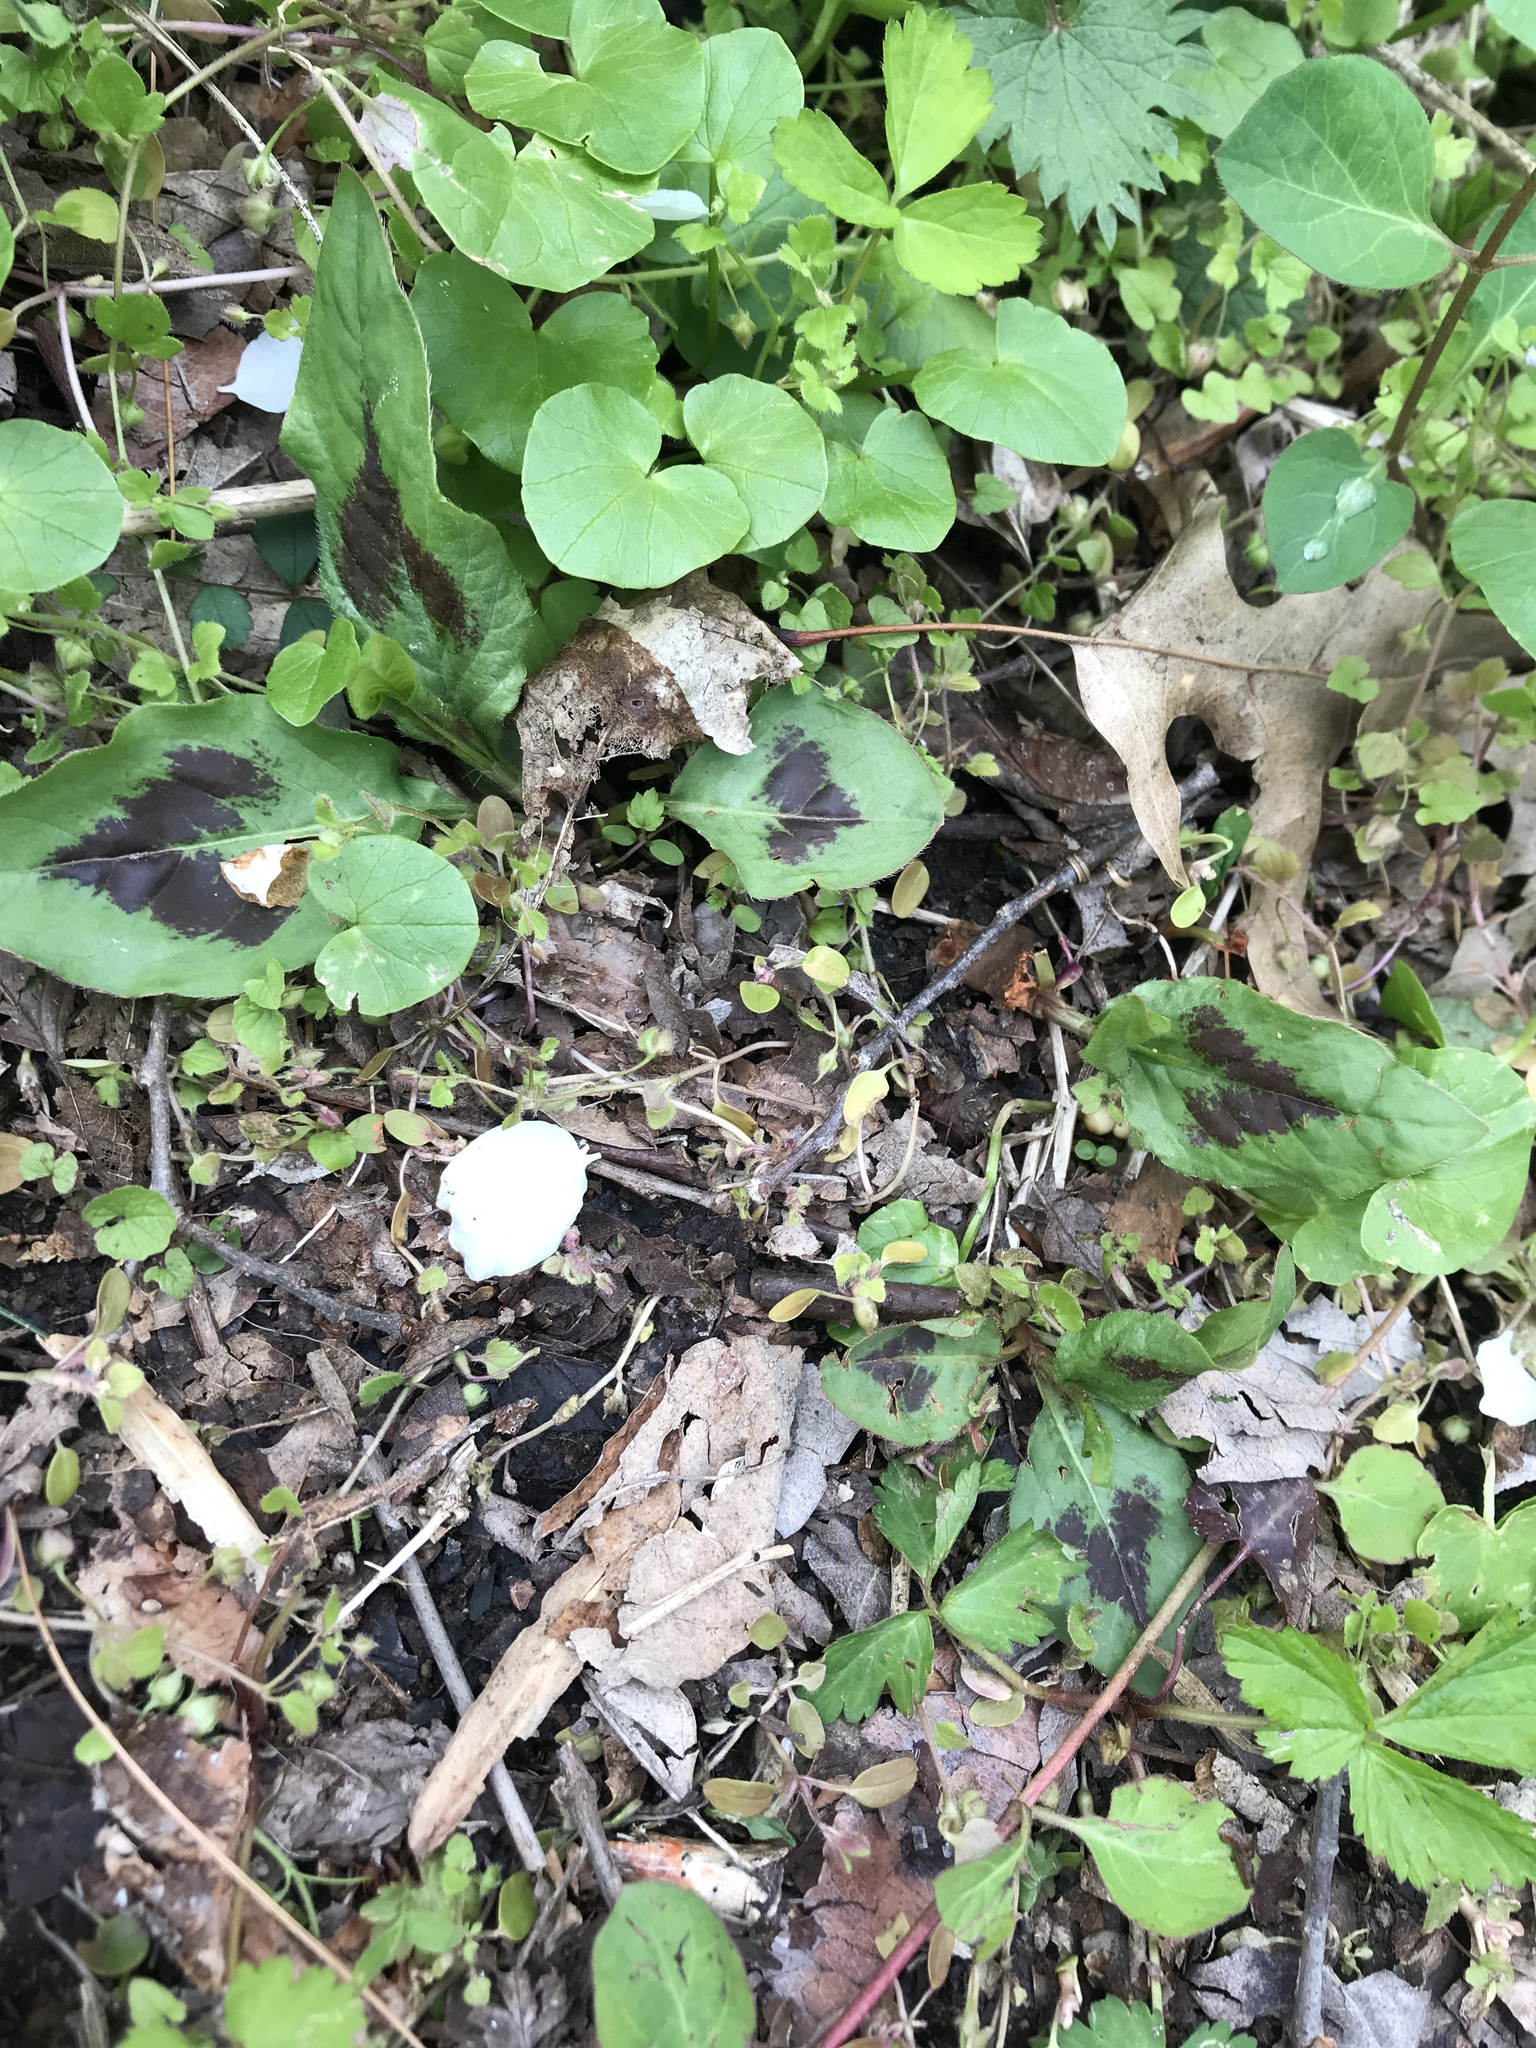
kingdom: Plantae
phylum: Tracheophyta
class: Magnoliopsida
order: Caryophyllales
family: Polygonaceae
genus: Persicaria
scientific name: Persicaria virginiana
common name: Jumpseed
